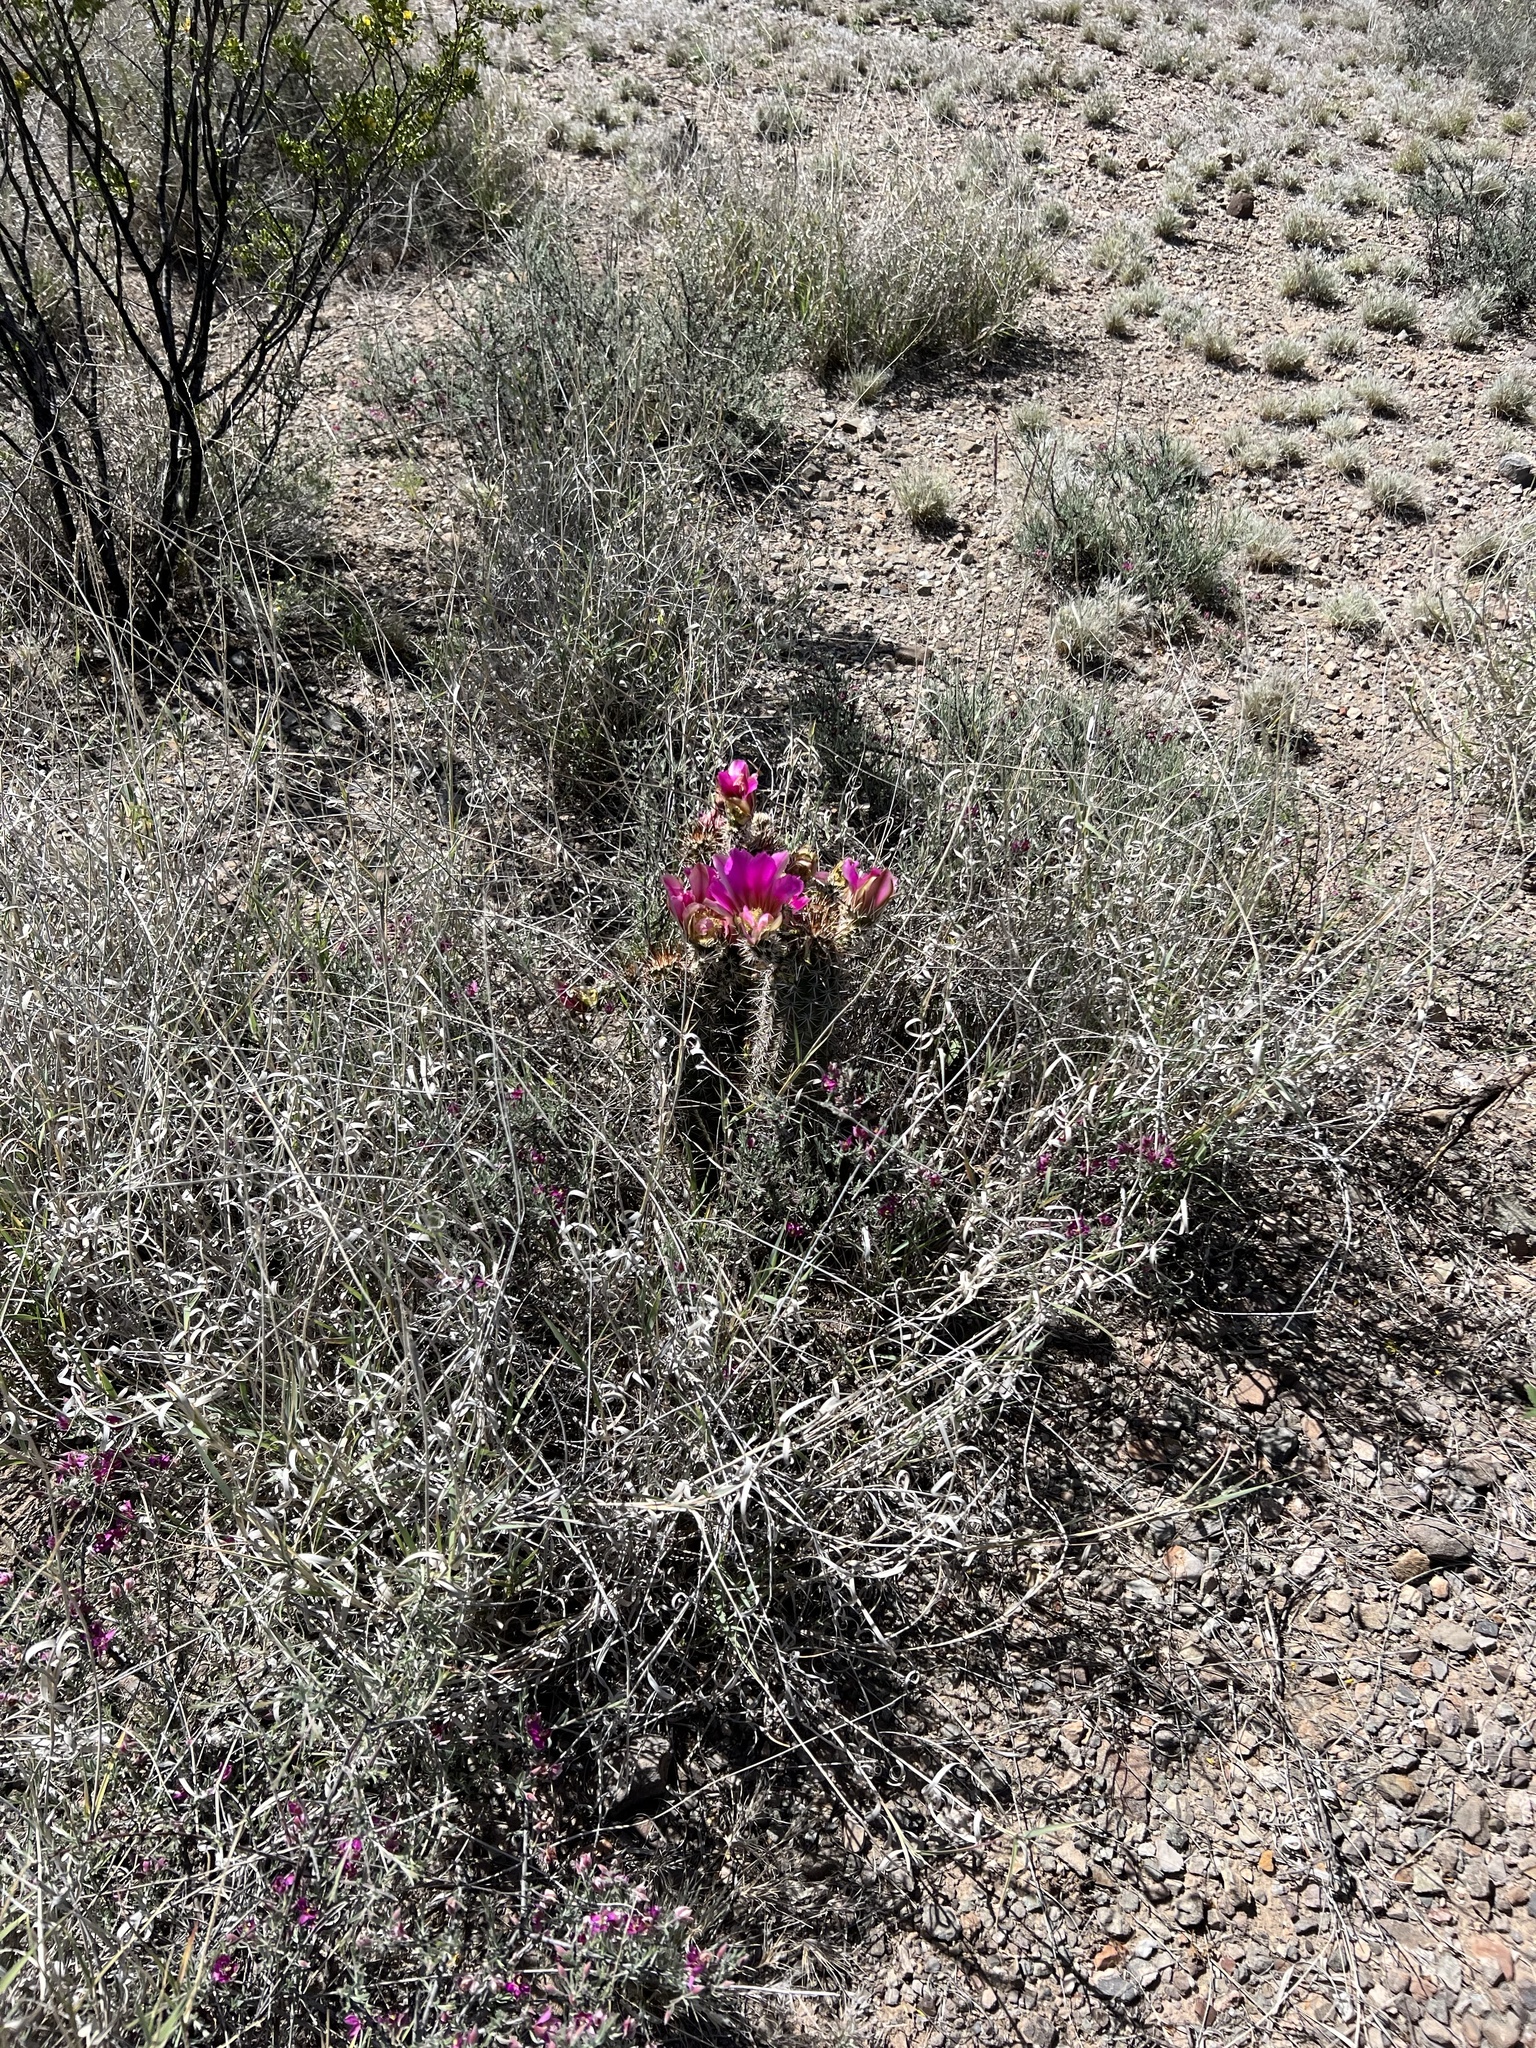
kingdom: Plantae
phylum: Tracheophyta
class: Magnoliopsida
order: Caryophyllales
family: Cactaceae
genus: Echinocereus
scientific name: Echinocereus fasciculatus
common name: Bundle hedgehog
